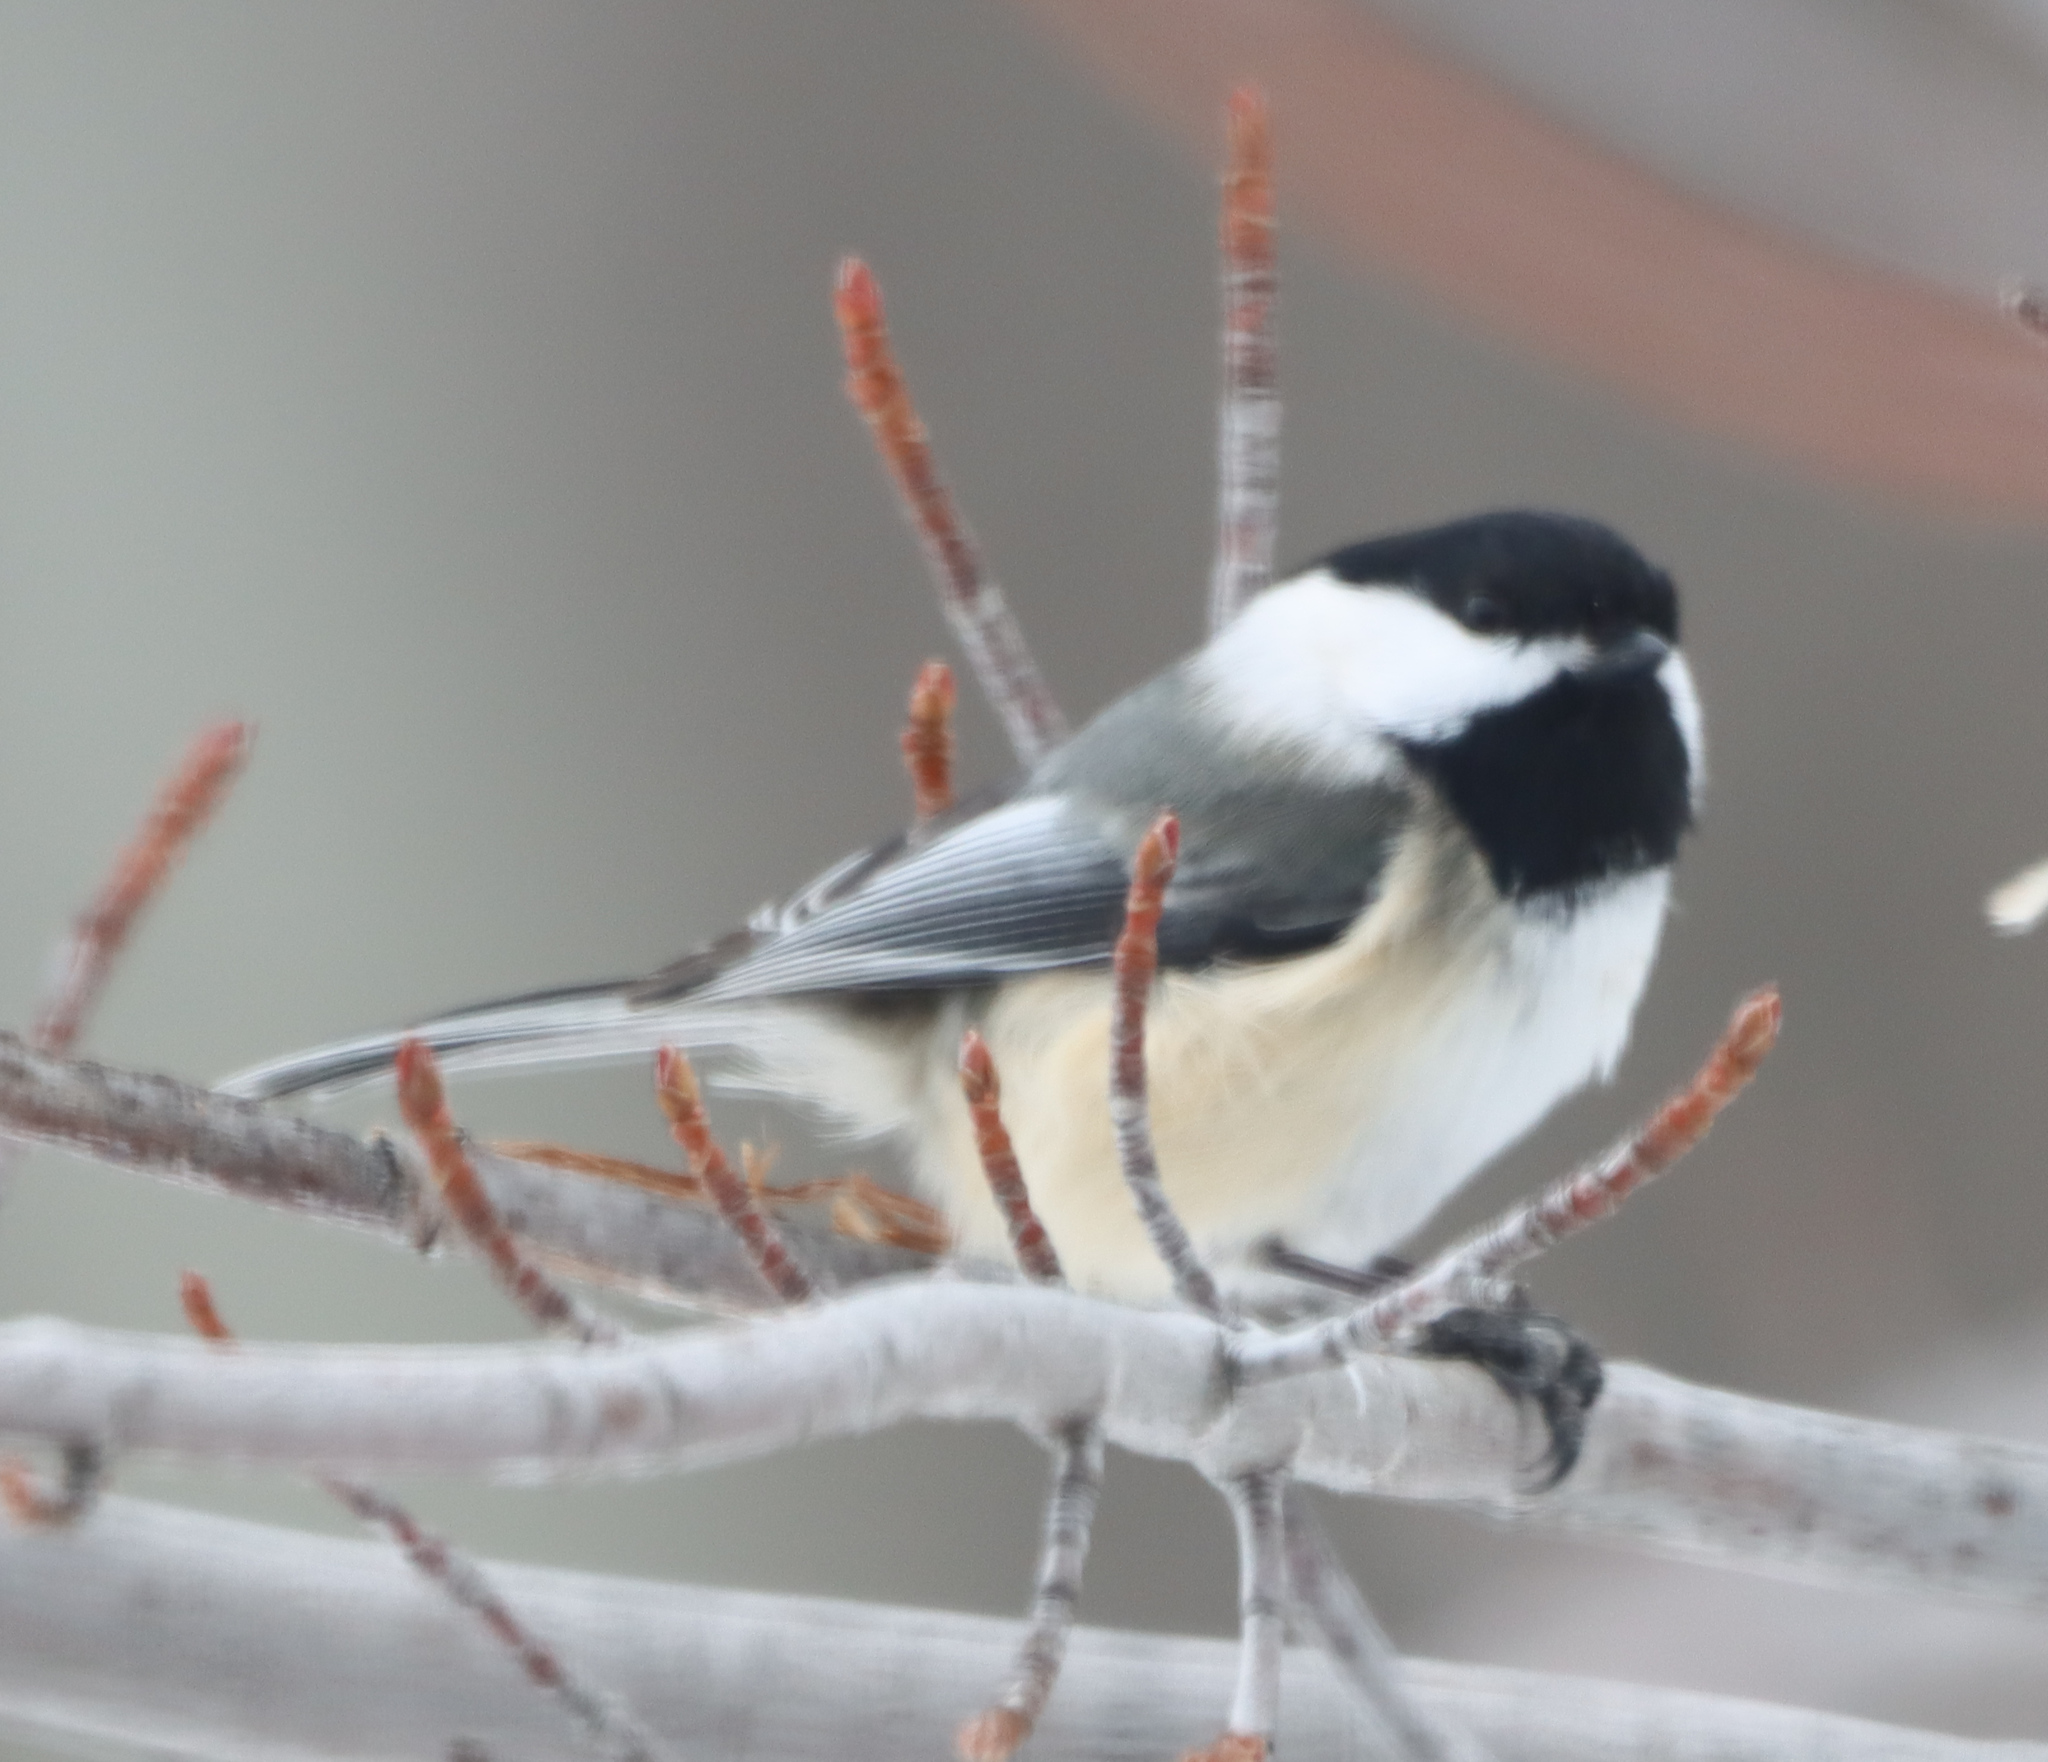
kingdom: Animalia
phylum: Chordata
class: Aves
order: Passeriformes
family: Paridae
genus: Poecile
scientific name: Poecile atricapillus
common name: Black-capped chickadee
